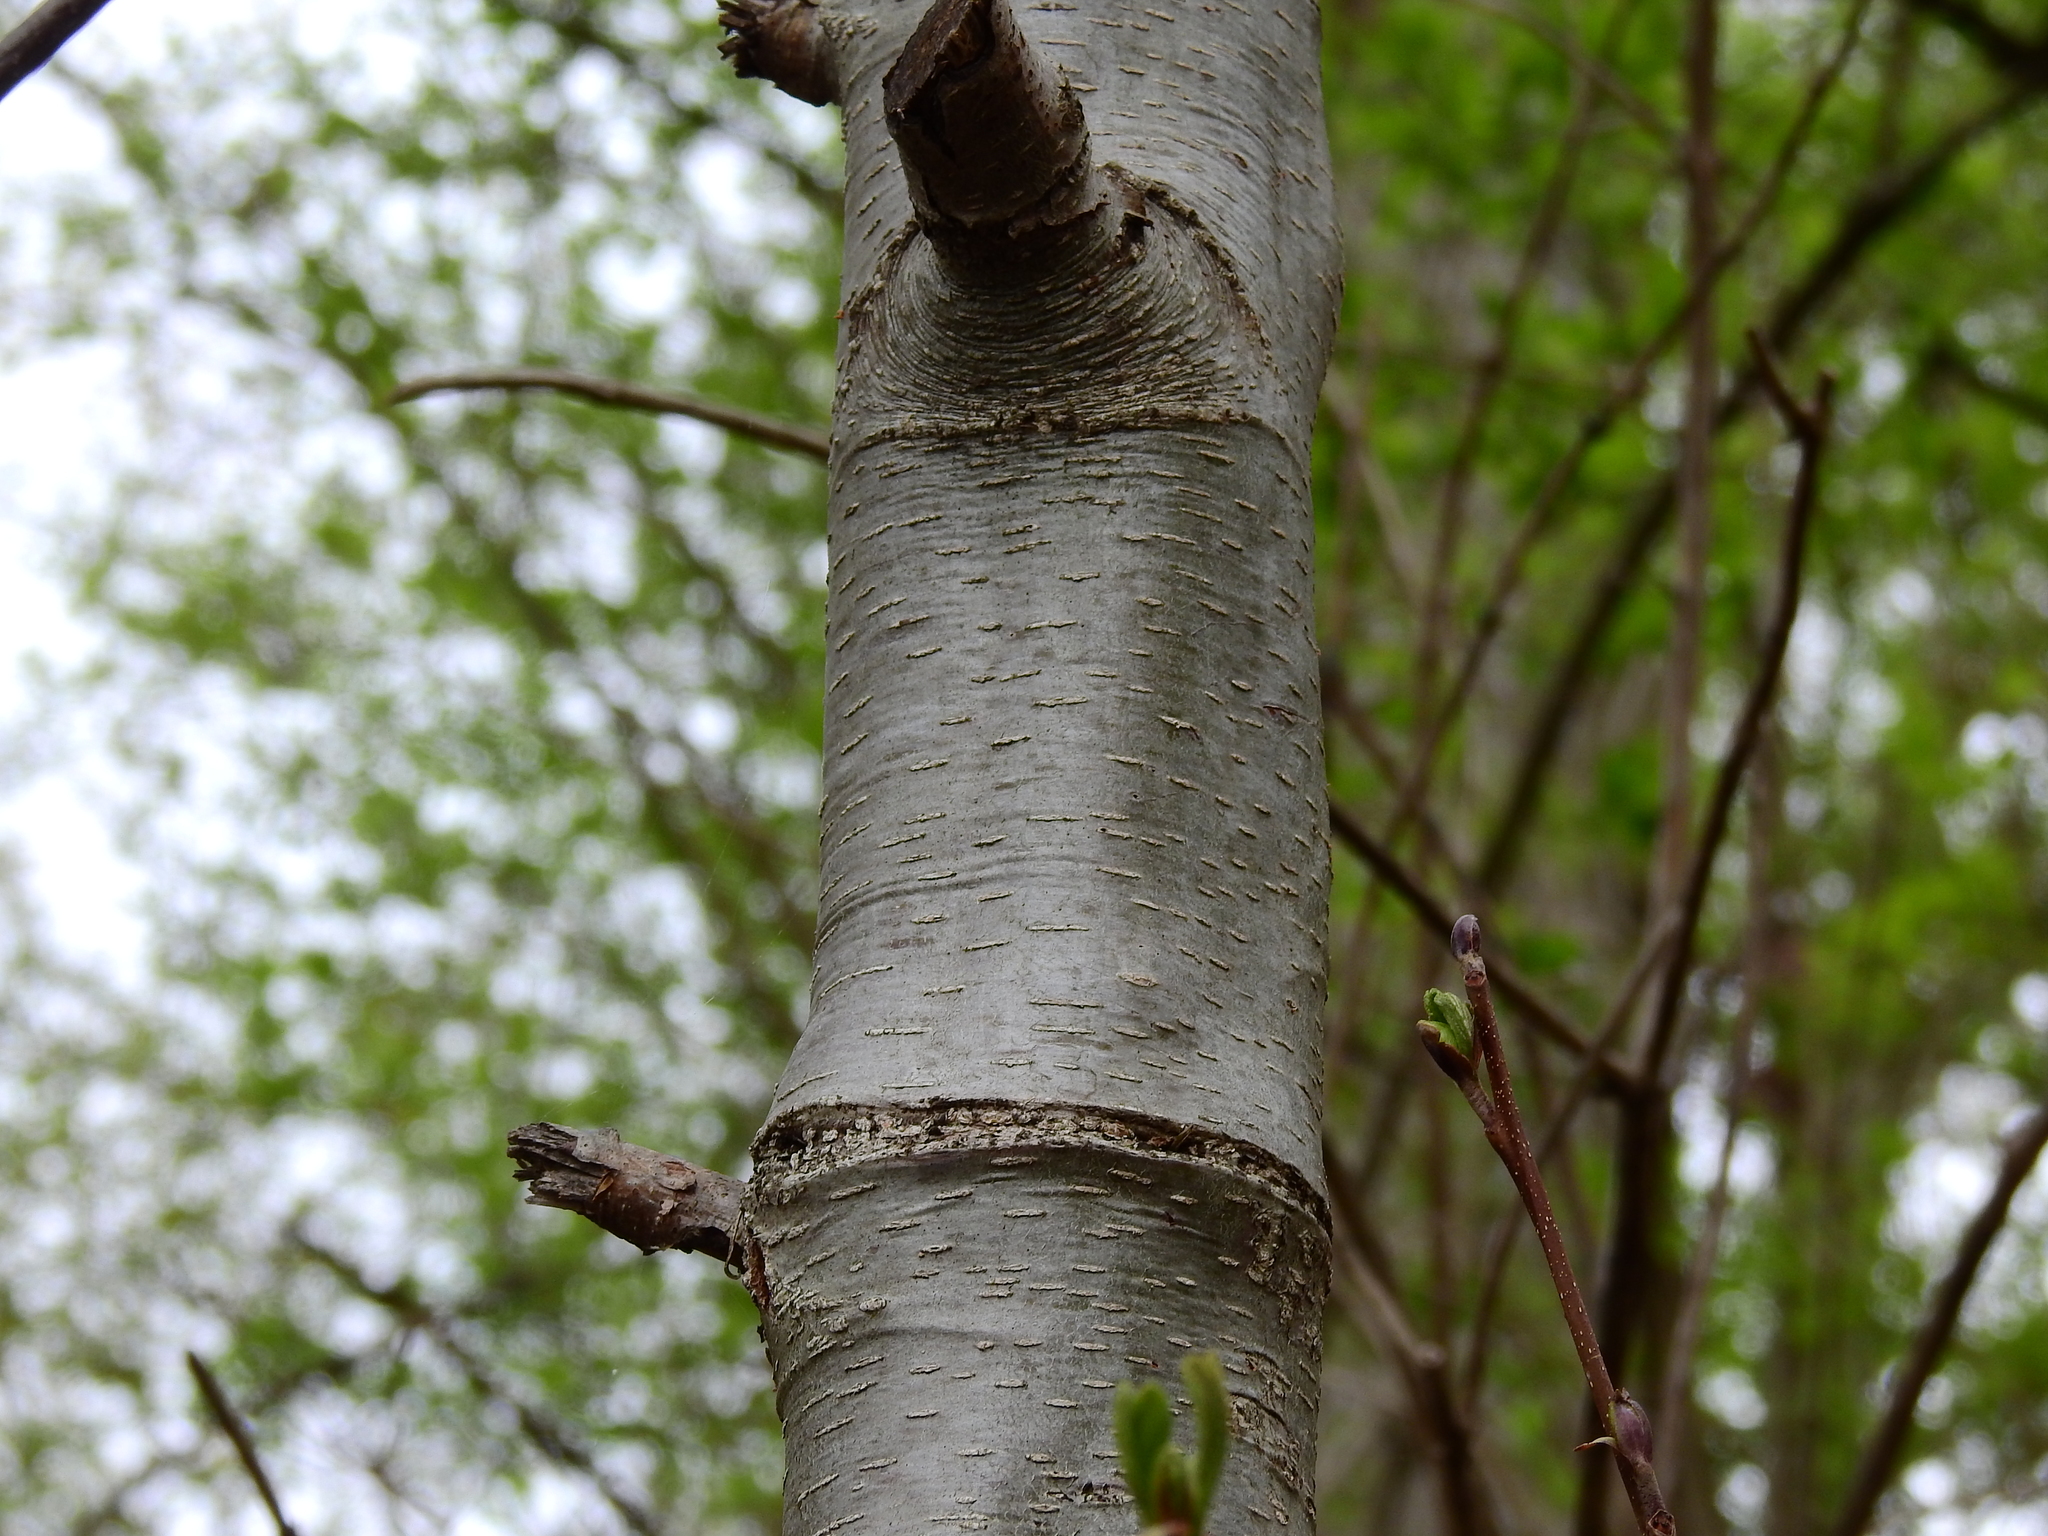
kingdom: Plantae
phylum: Tracheophyta
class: Magnoliopsida
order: Fagales
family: Betulaceae
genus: Alnus
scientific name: Alnus glutinosa
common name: Black alder
